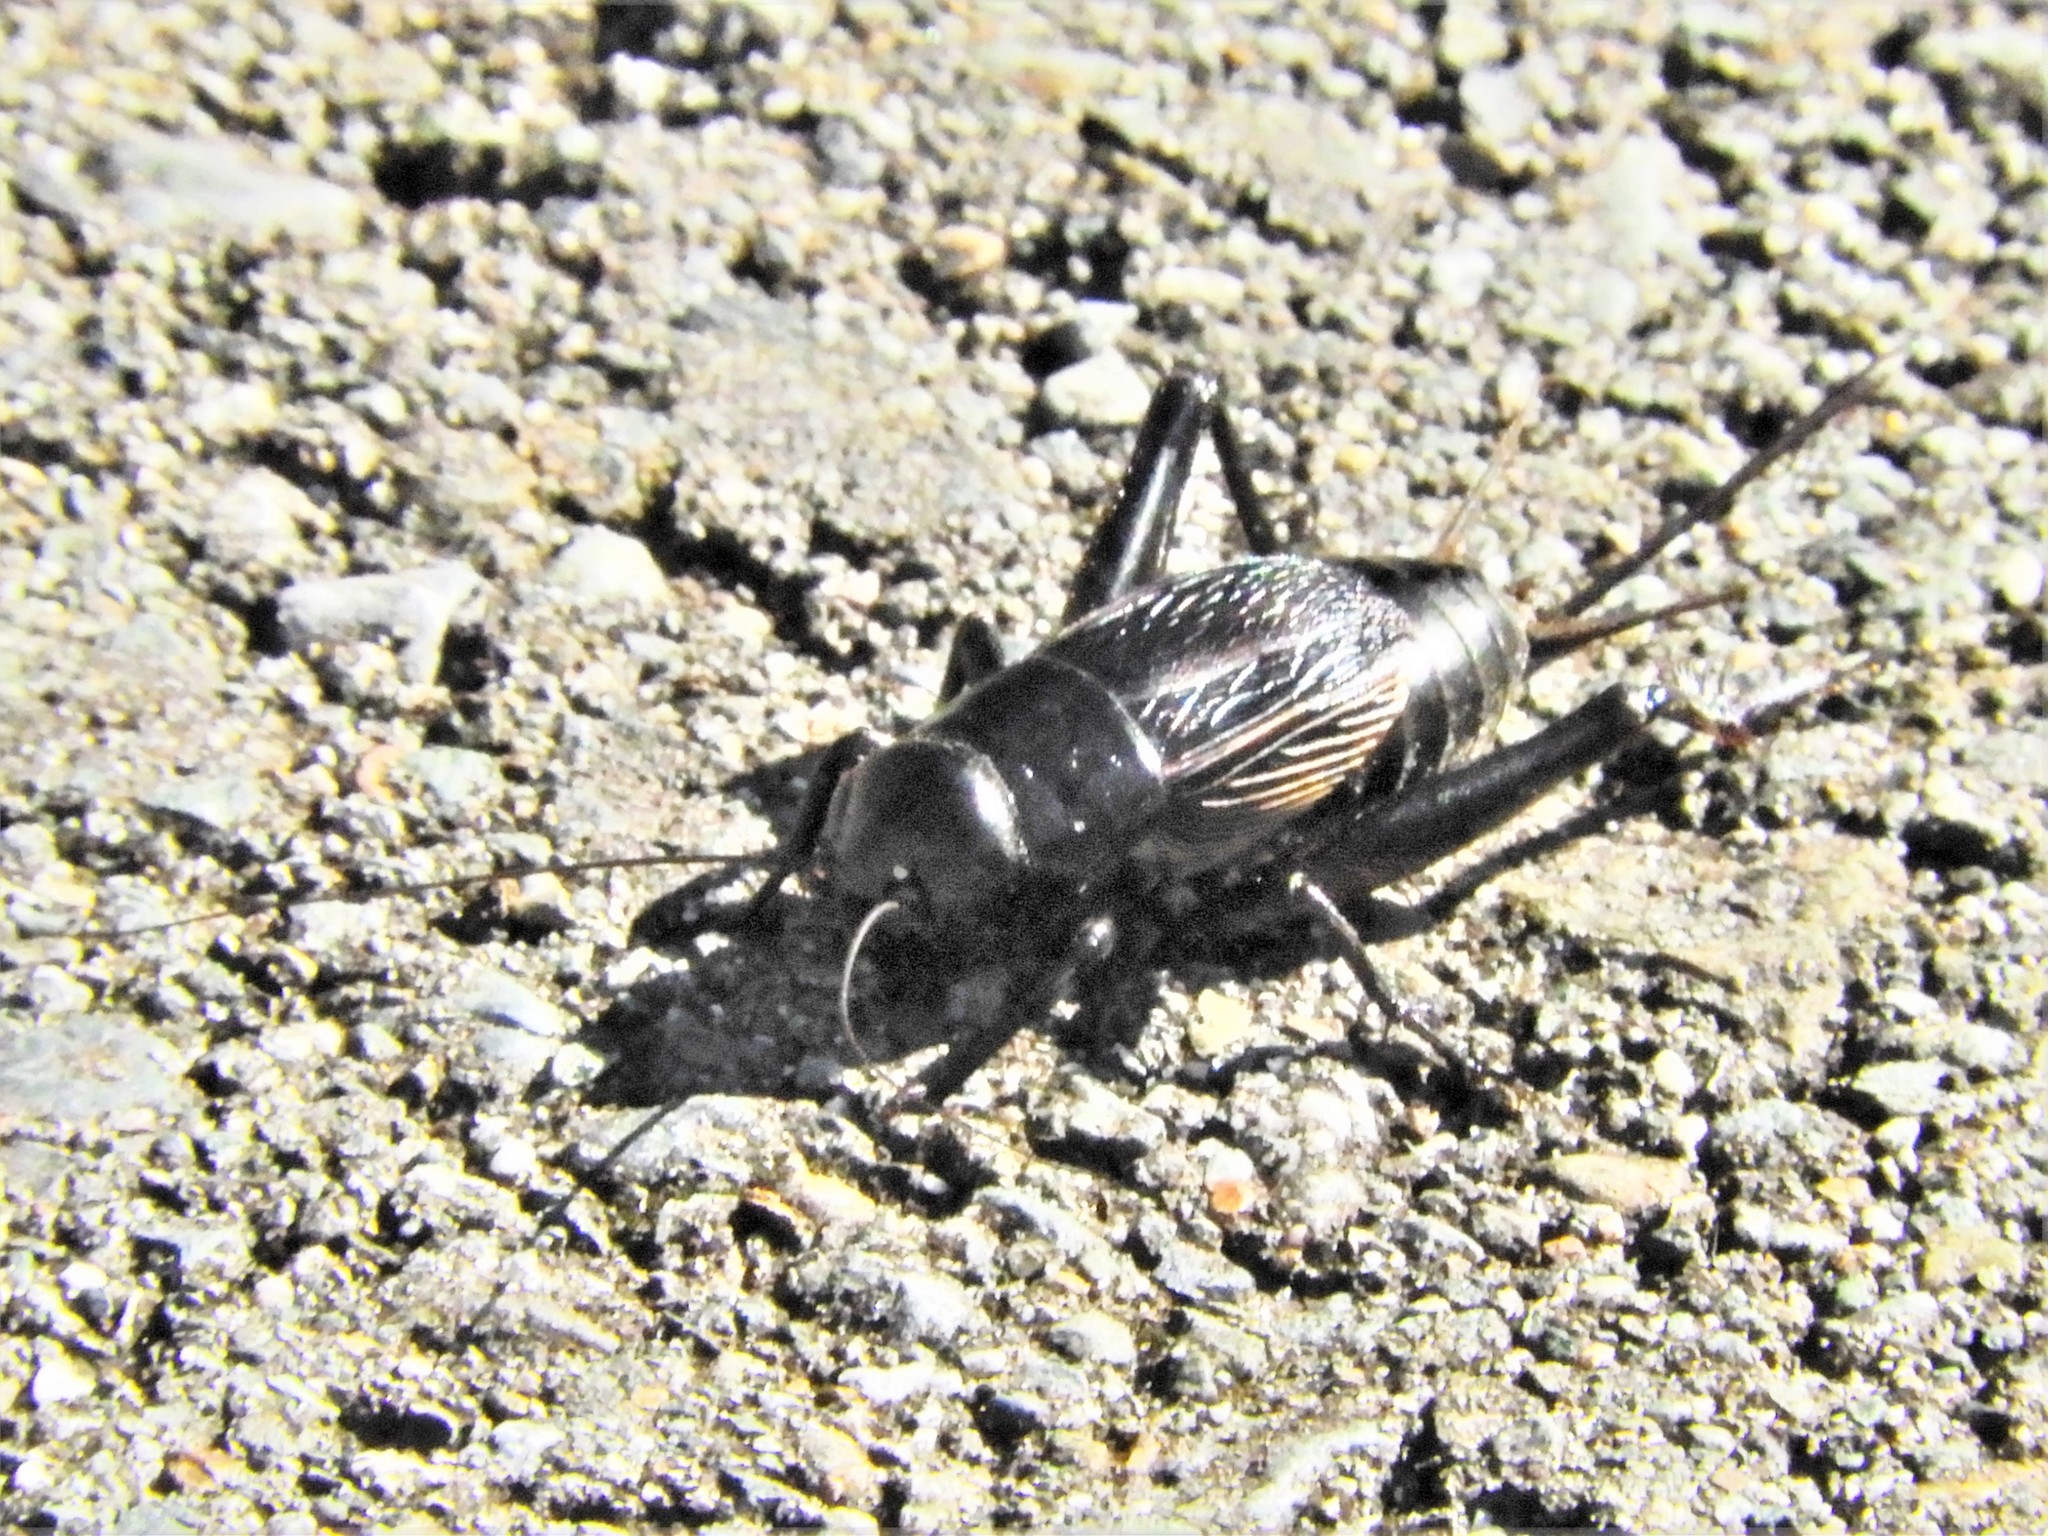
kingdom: Animalia
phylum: Arthropoda
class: Insecta
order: Orthoptera
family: Gryllidae
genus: Gryllus
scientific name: Gryllus pennsylvanicus
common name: Fall field cricket
